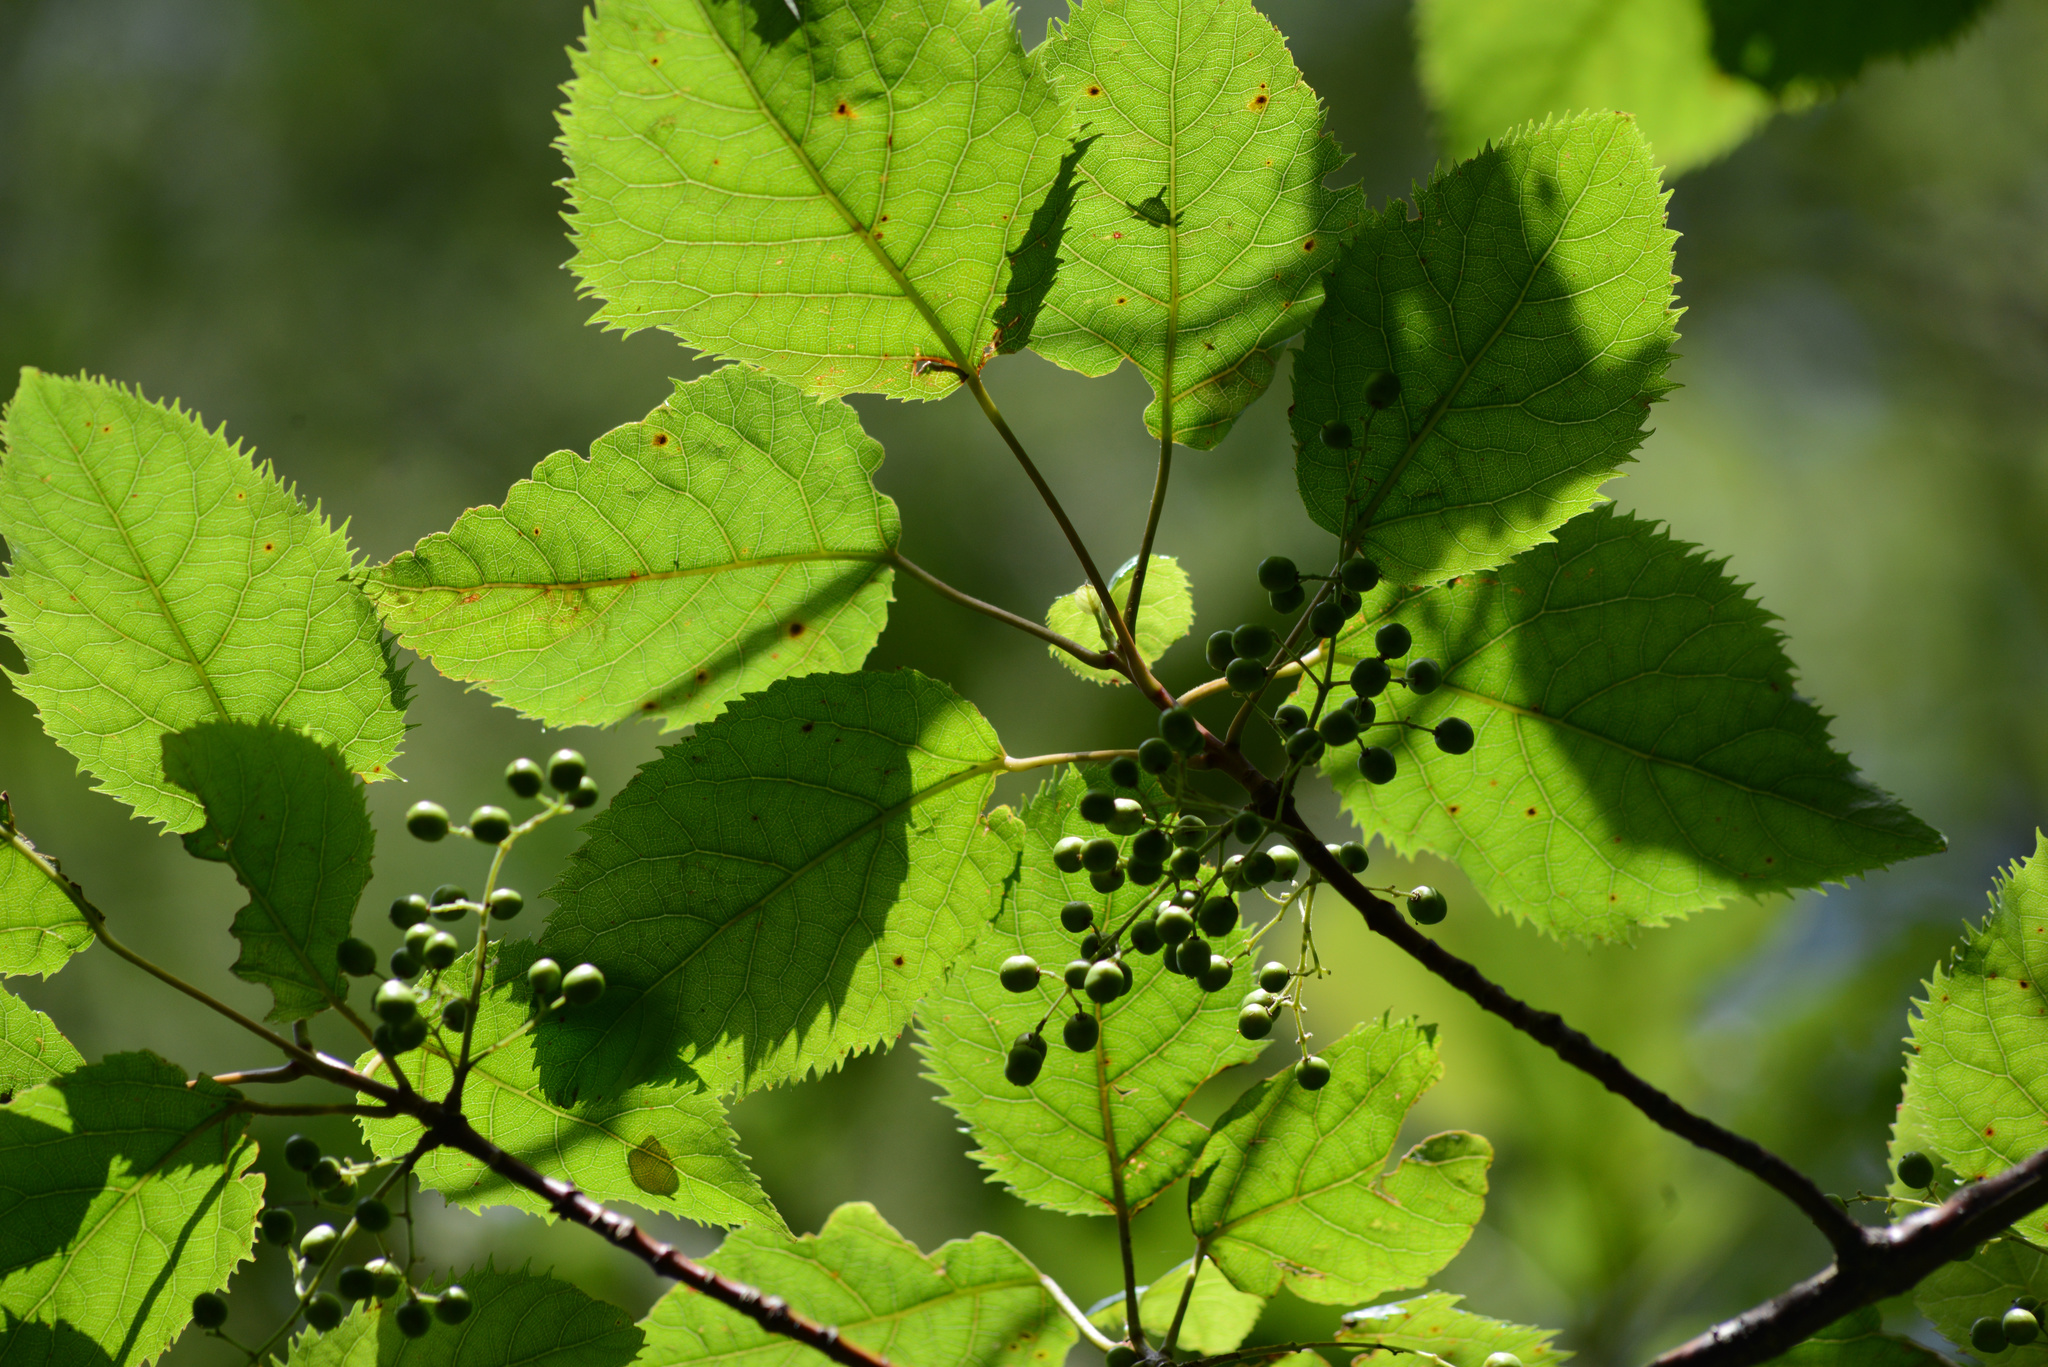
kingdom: Plantae
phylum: Tracheophyta
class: Magnoliopsida
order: Oxalidales
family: Elaeocarpaceae
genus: Aristotelia
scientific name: Aristotelia serrata
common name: New zealand wineberry
